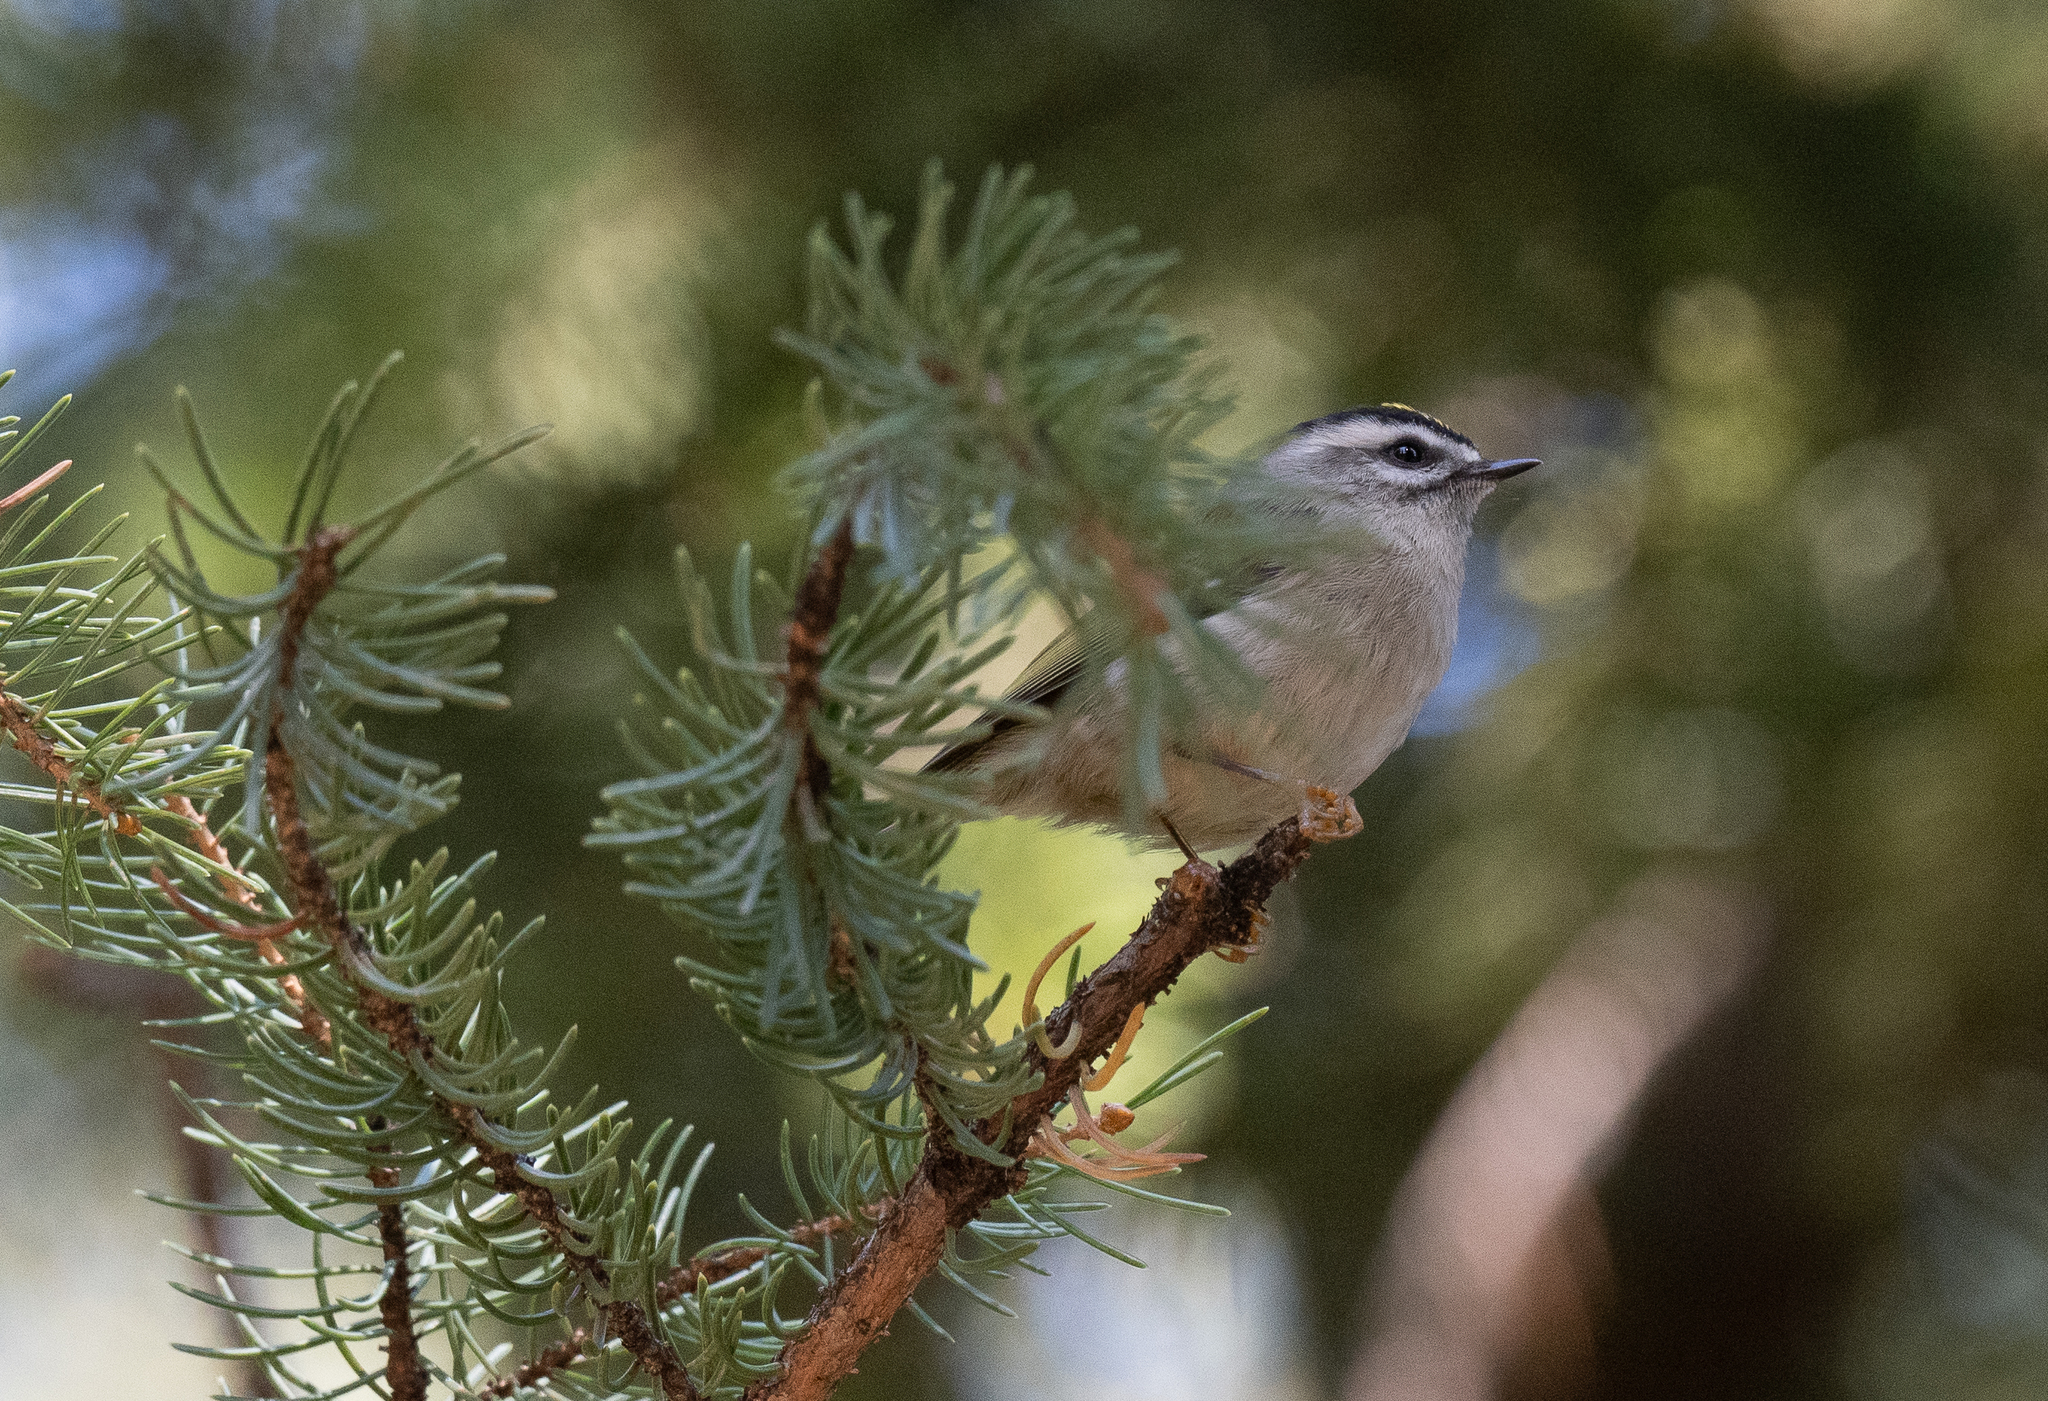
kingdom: Animalia
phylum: Chordata
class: Aves
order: Passeriformes
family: Regulidae
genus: Regulus
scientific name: Regulus satrapa
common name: Golden-crowned kinglet
